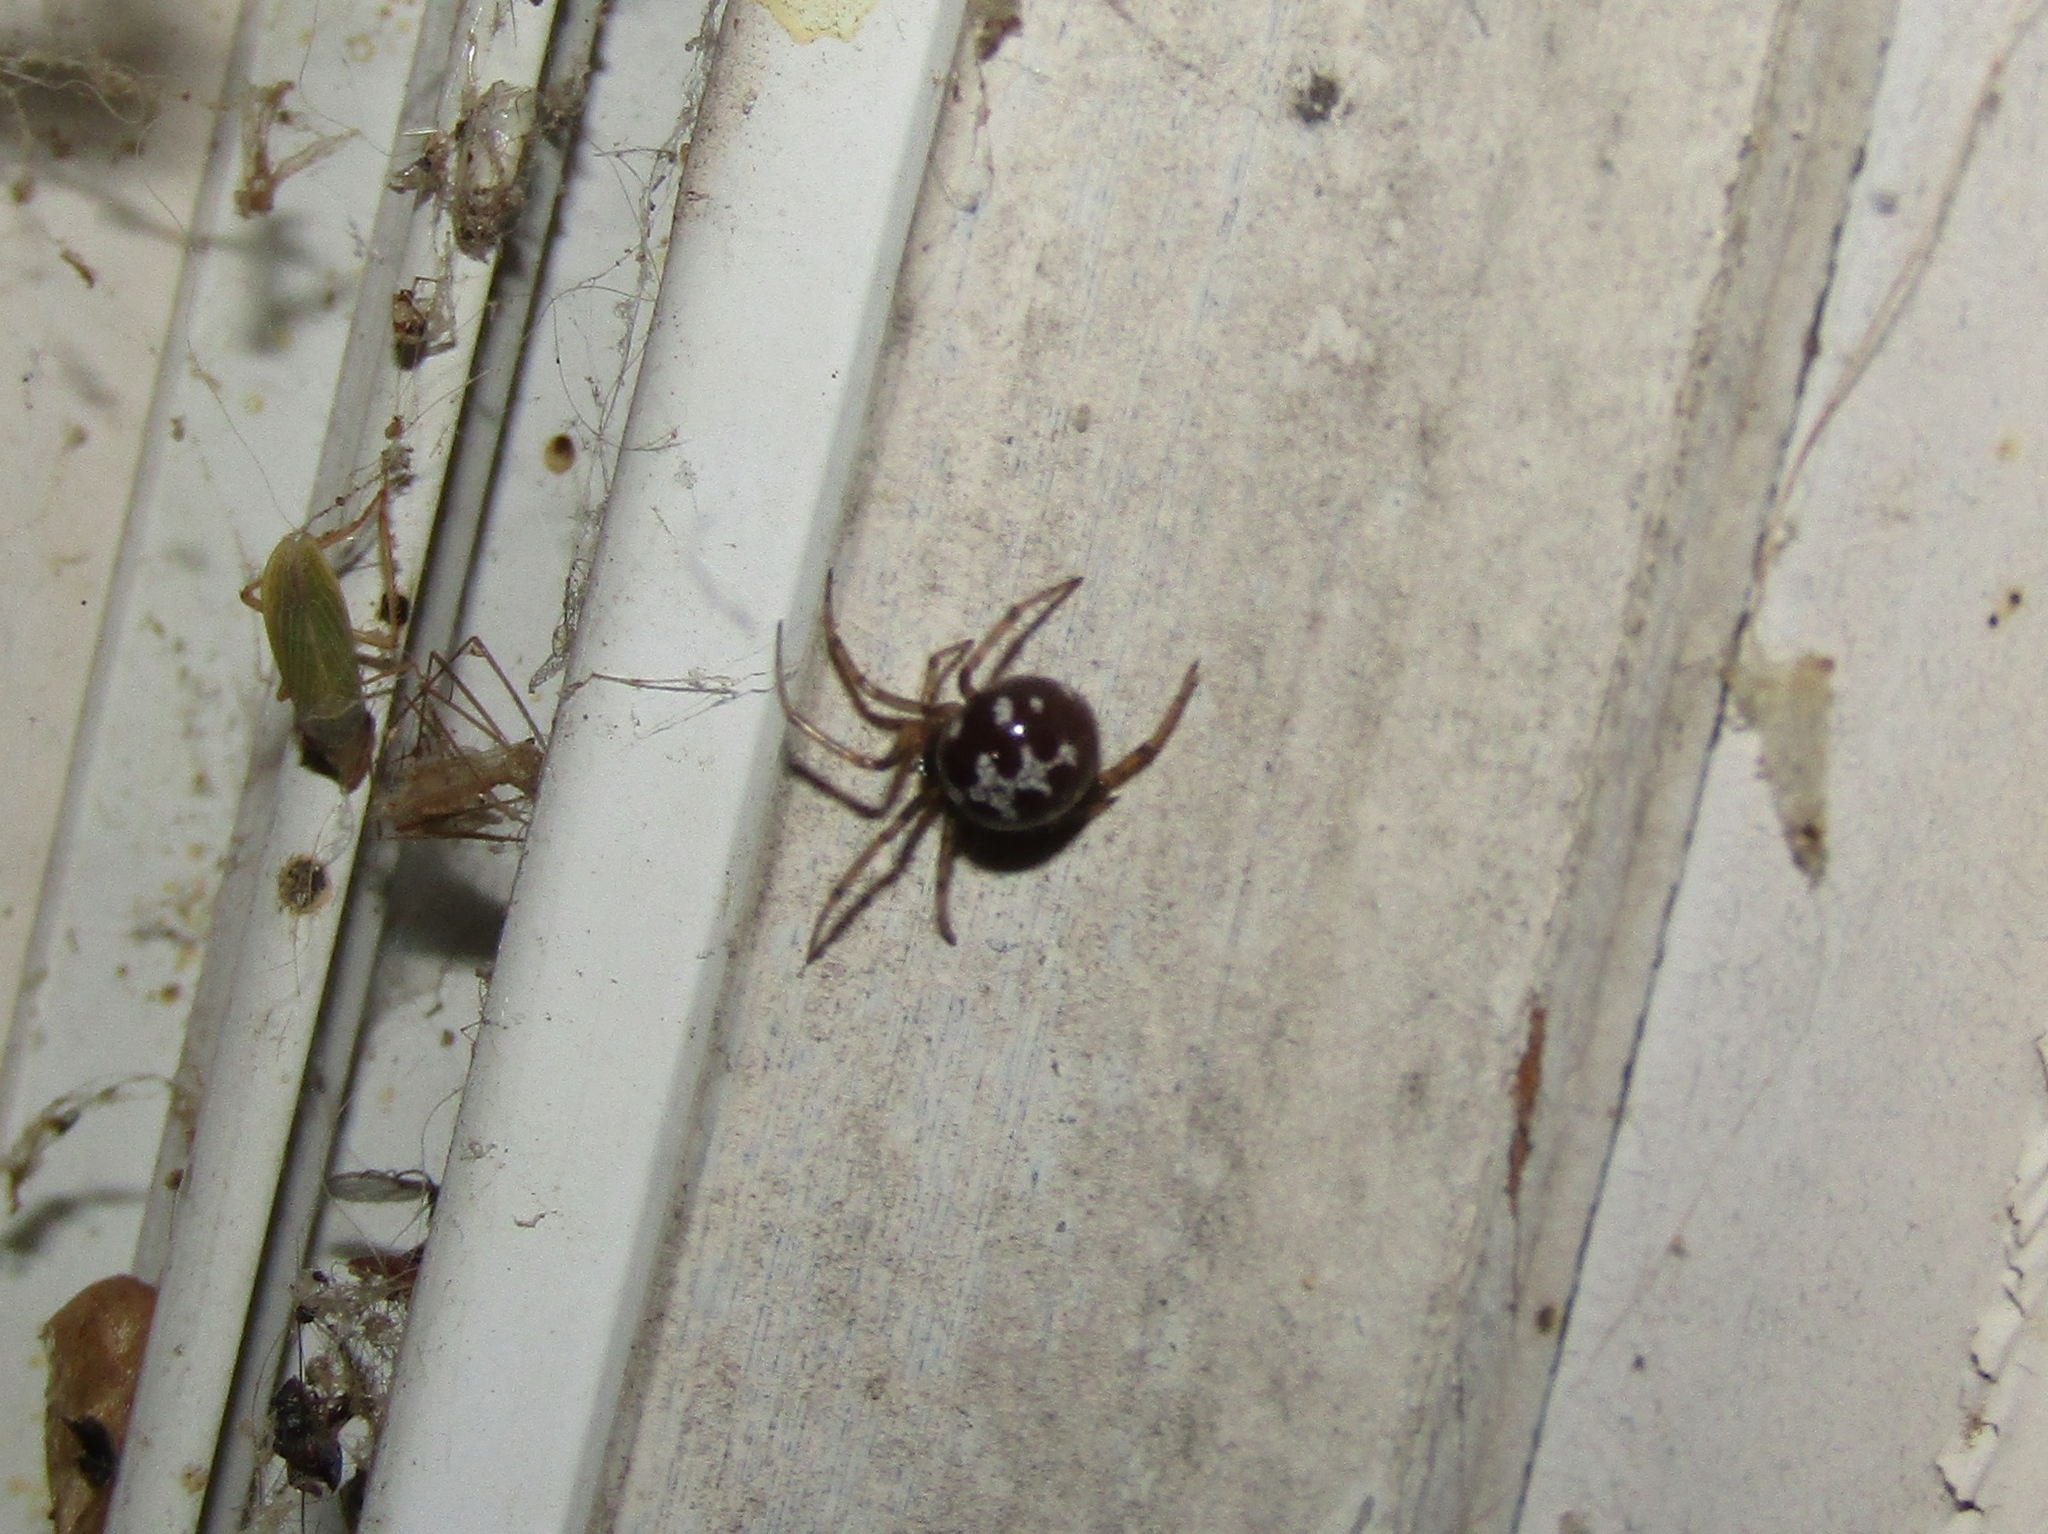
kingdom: Animalia
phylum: Arthropoda
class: Arachnida
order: Araneae
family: Theridiidae
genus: Steatoda
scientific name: Steatoda triangulosa
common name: Triangulate bud spider
